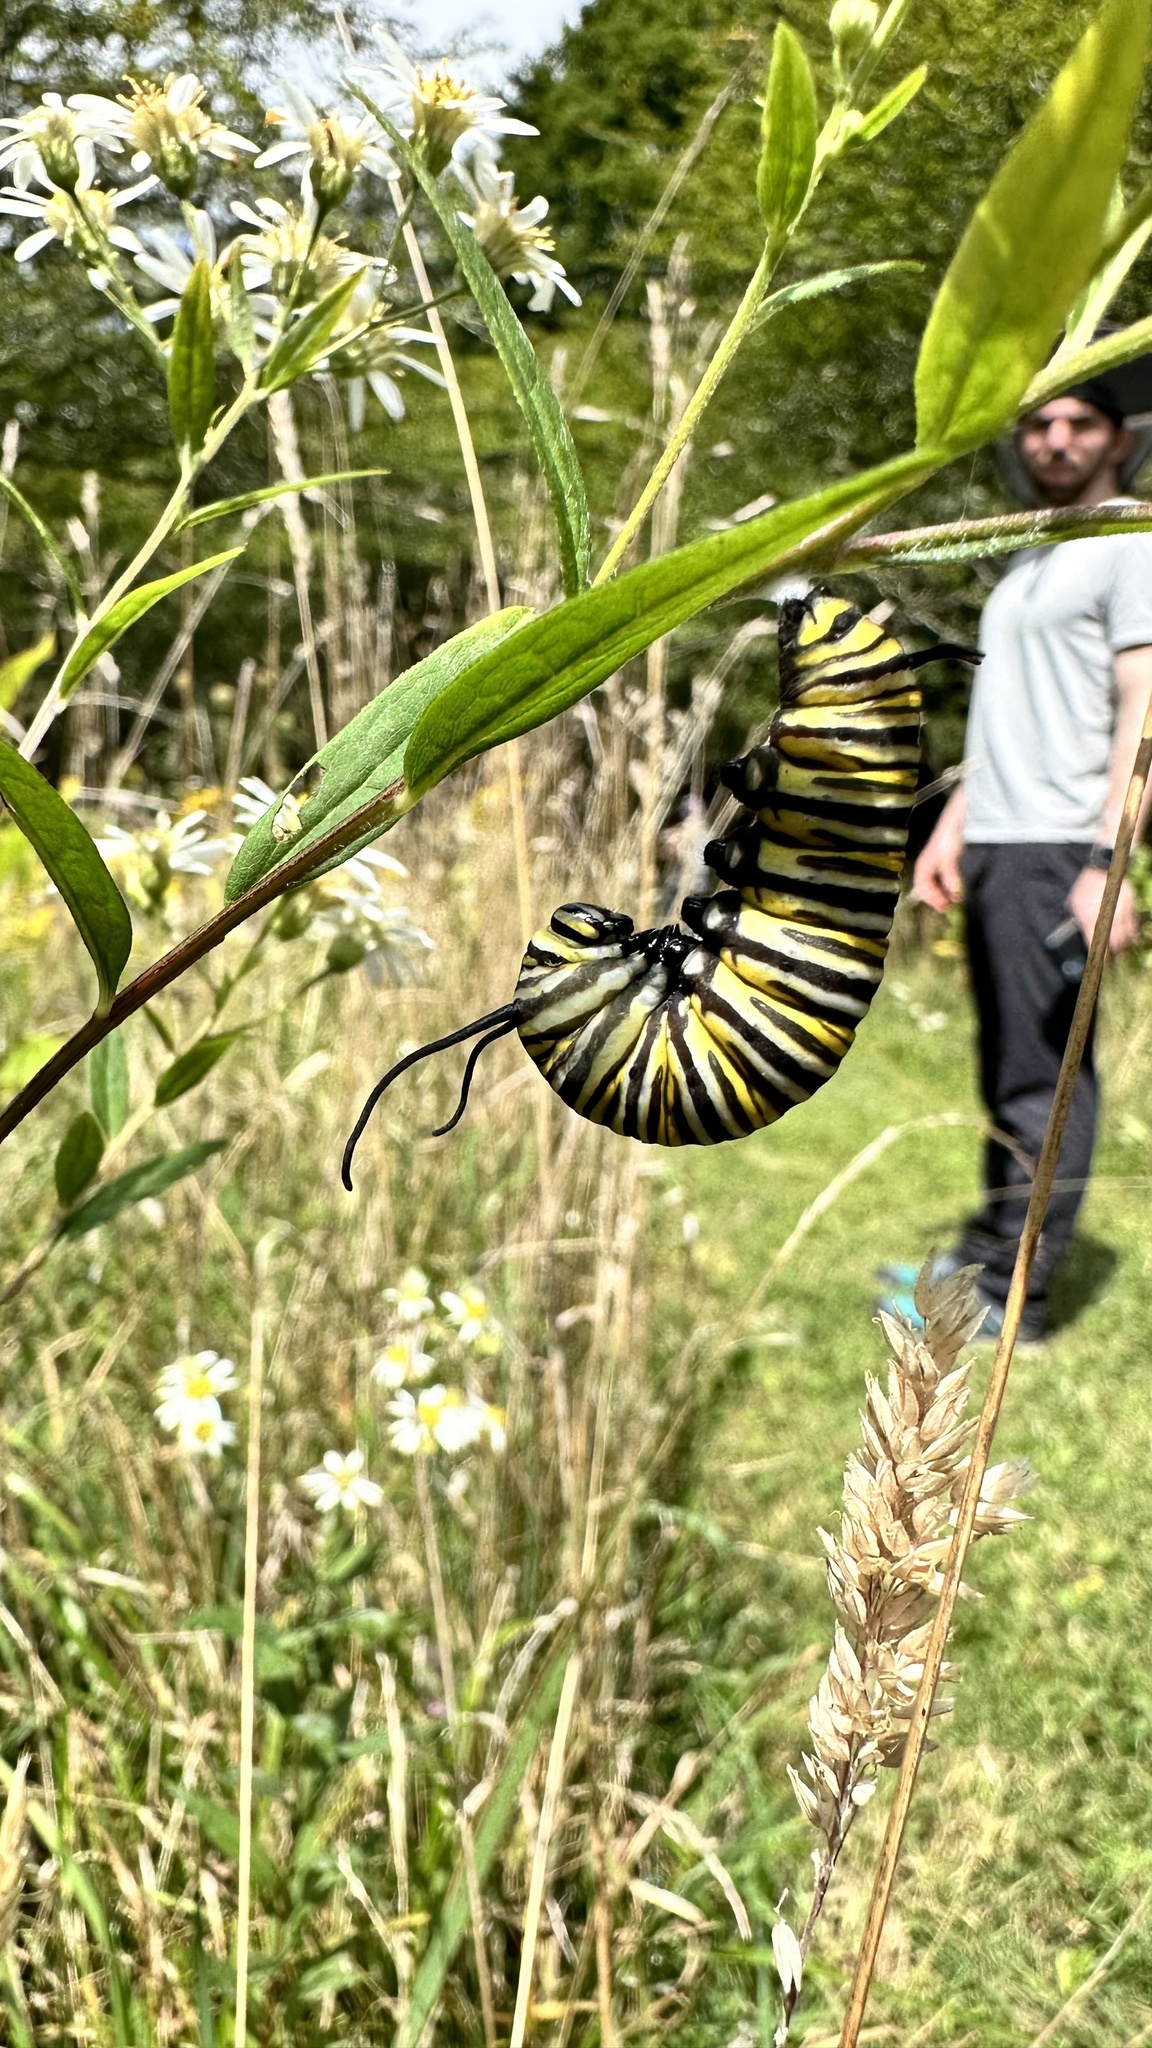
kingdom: Animalia
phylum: Arthropoda
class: Insecta
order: Lepidoptera
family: Nymphalidae
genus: Danaus
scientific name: Danaus plexippus
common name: Monarch
